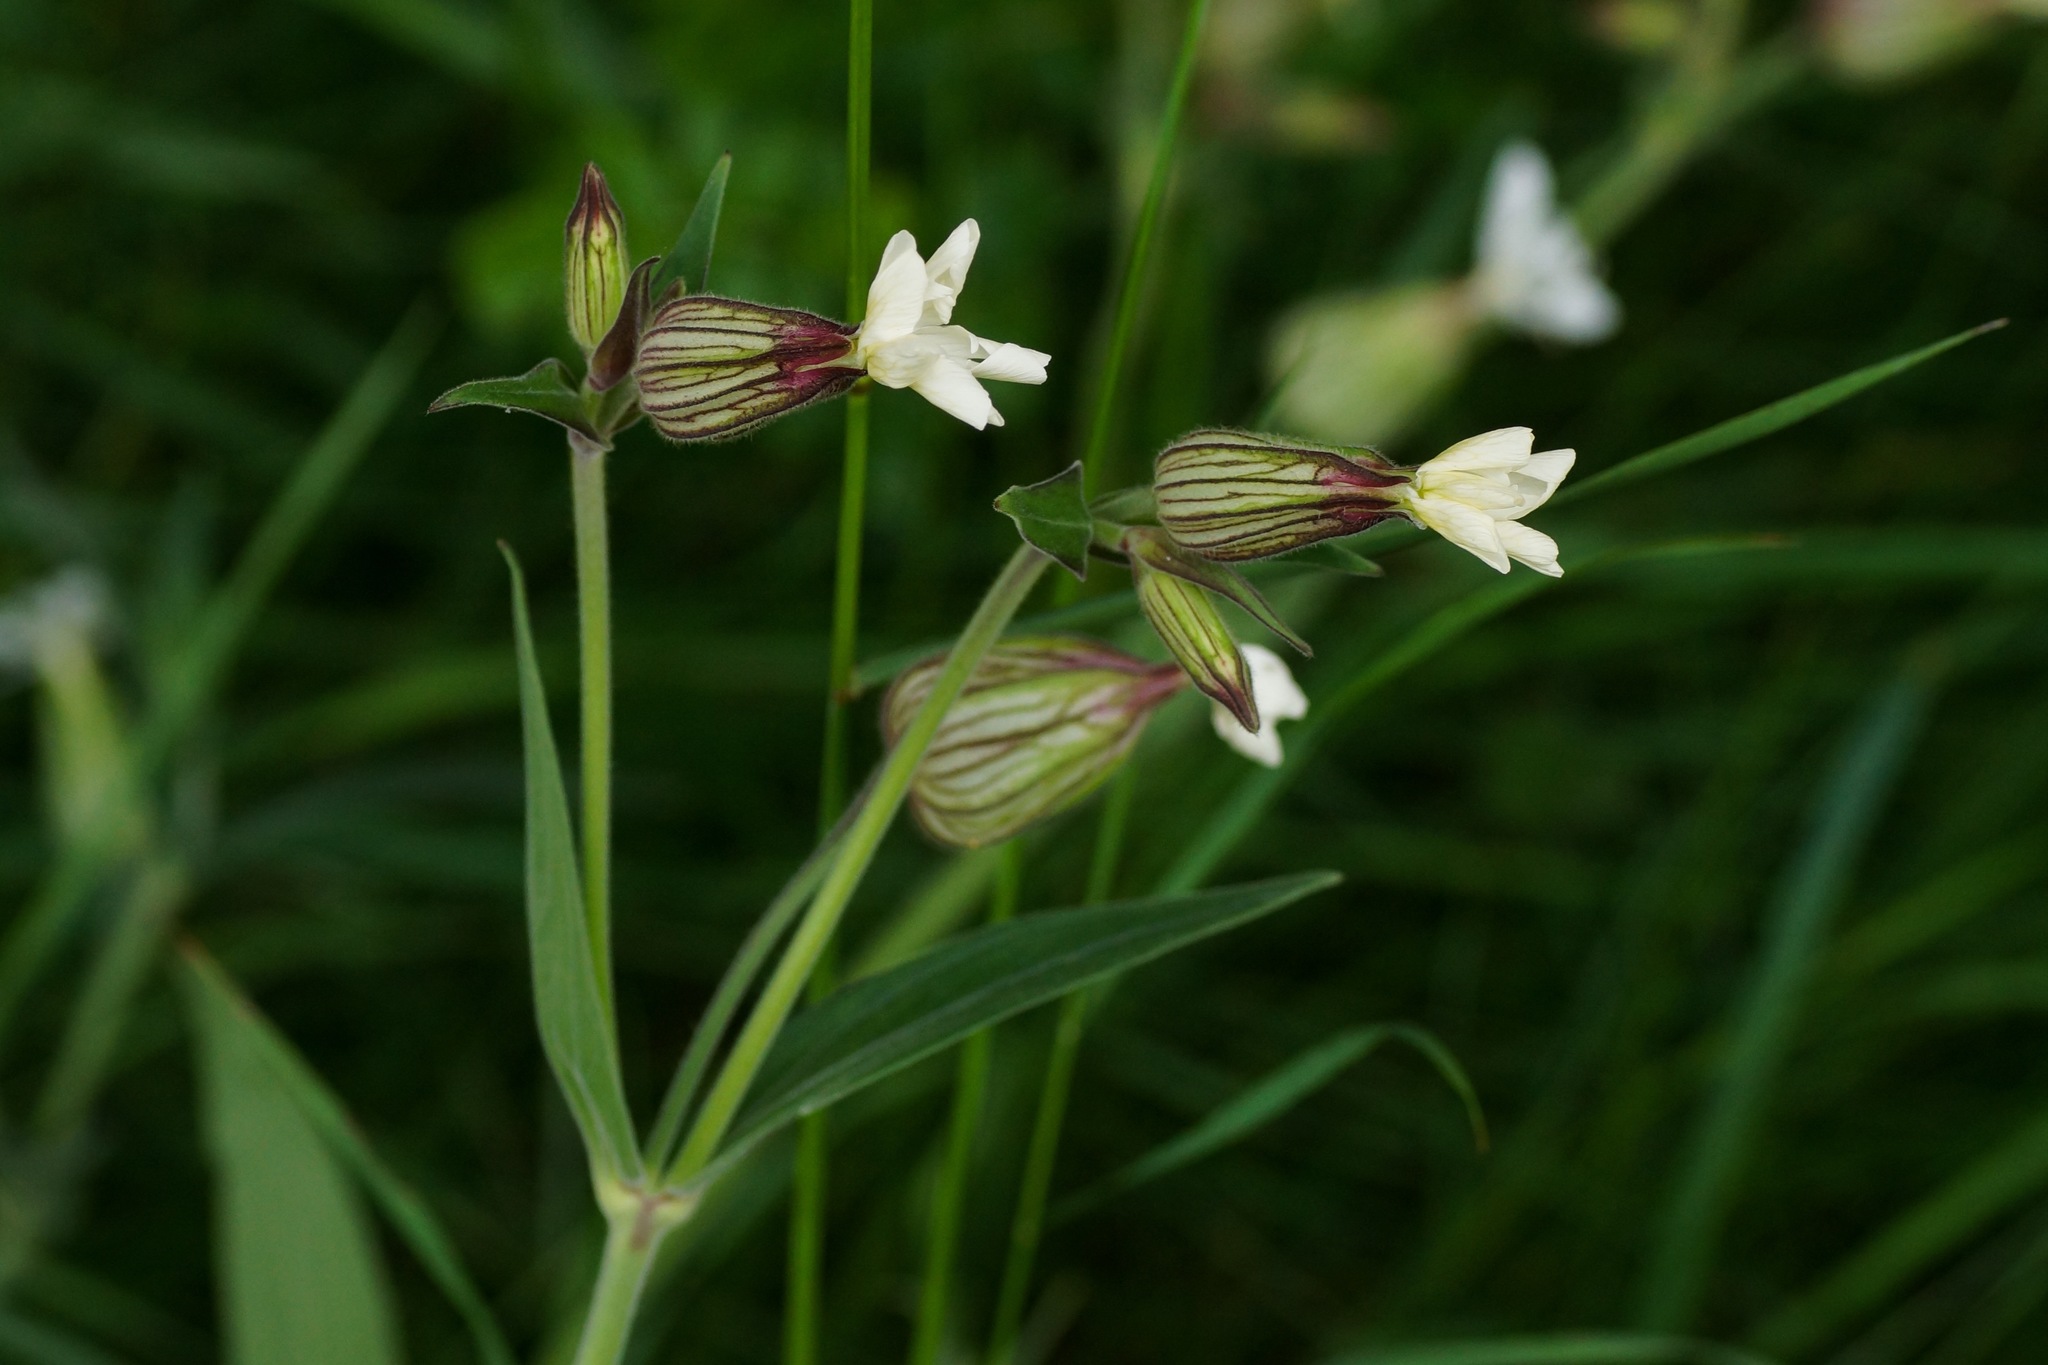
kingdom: Plantae
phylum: Tracheophyta
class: Magnoliopsida
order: Caryophyllales
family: Caryophyllaceae
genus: Silene
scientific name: Silene latifolia
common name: White campion
